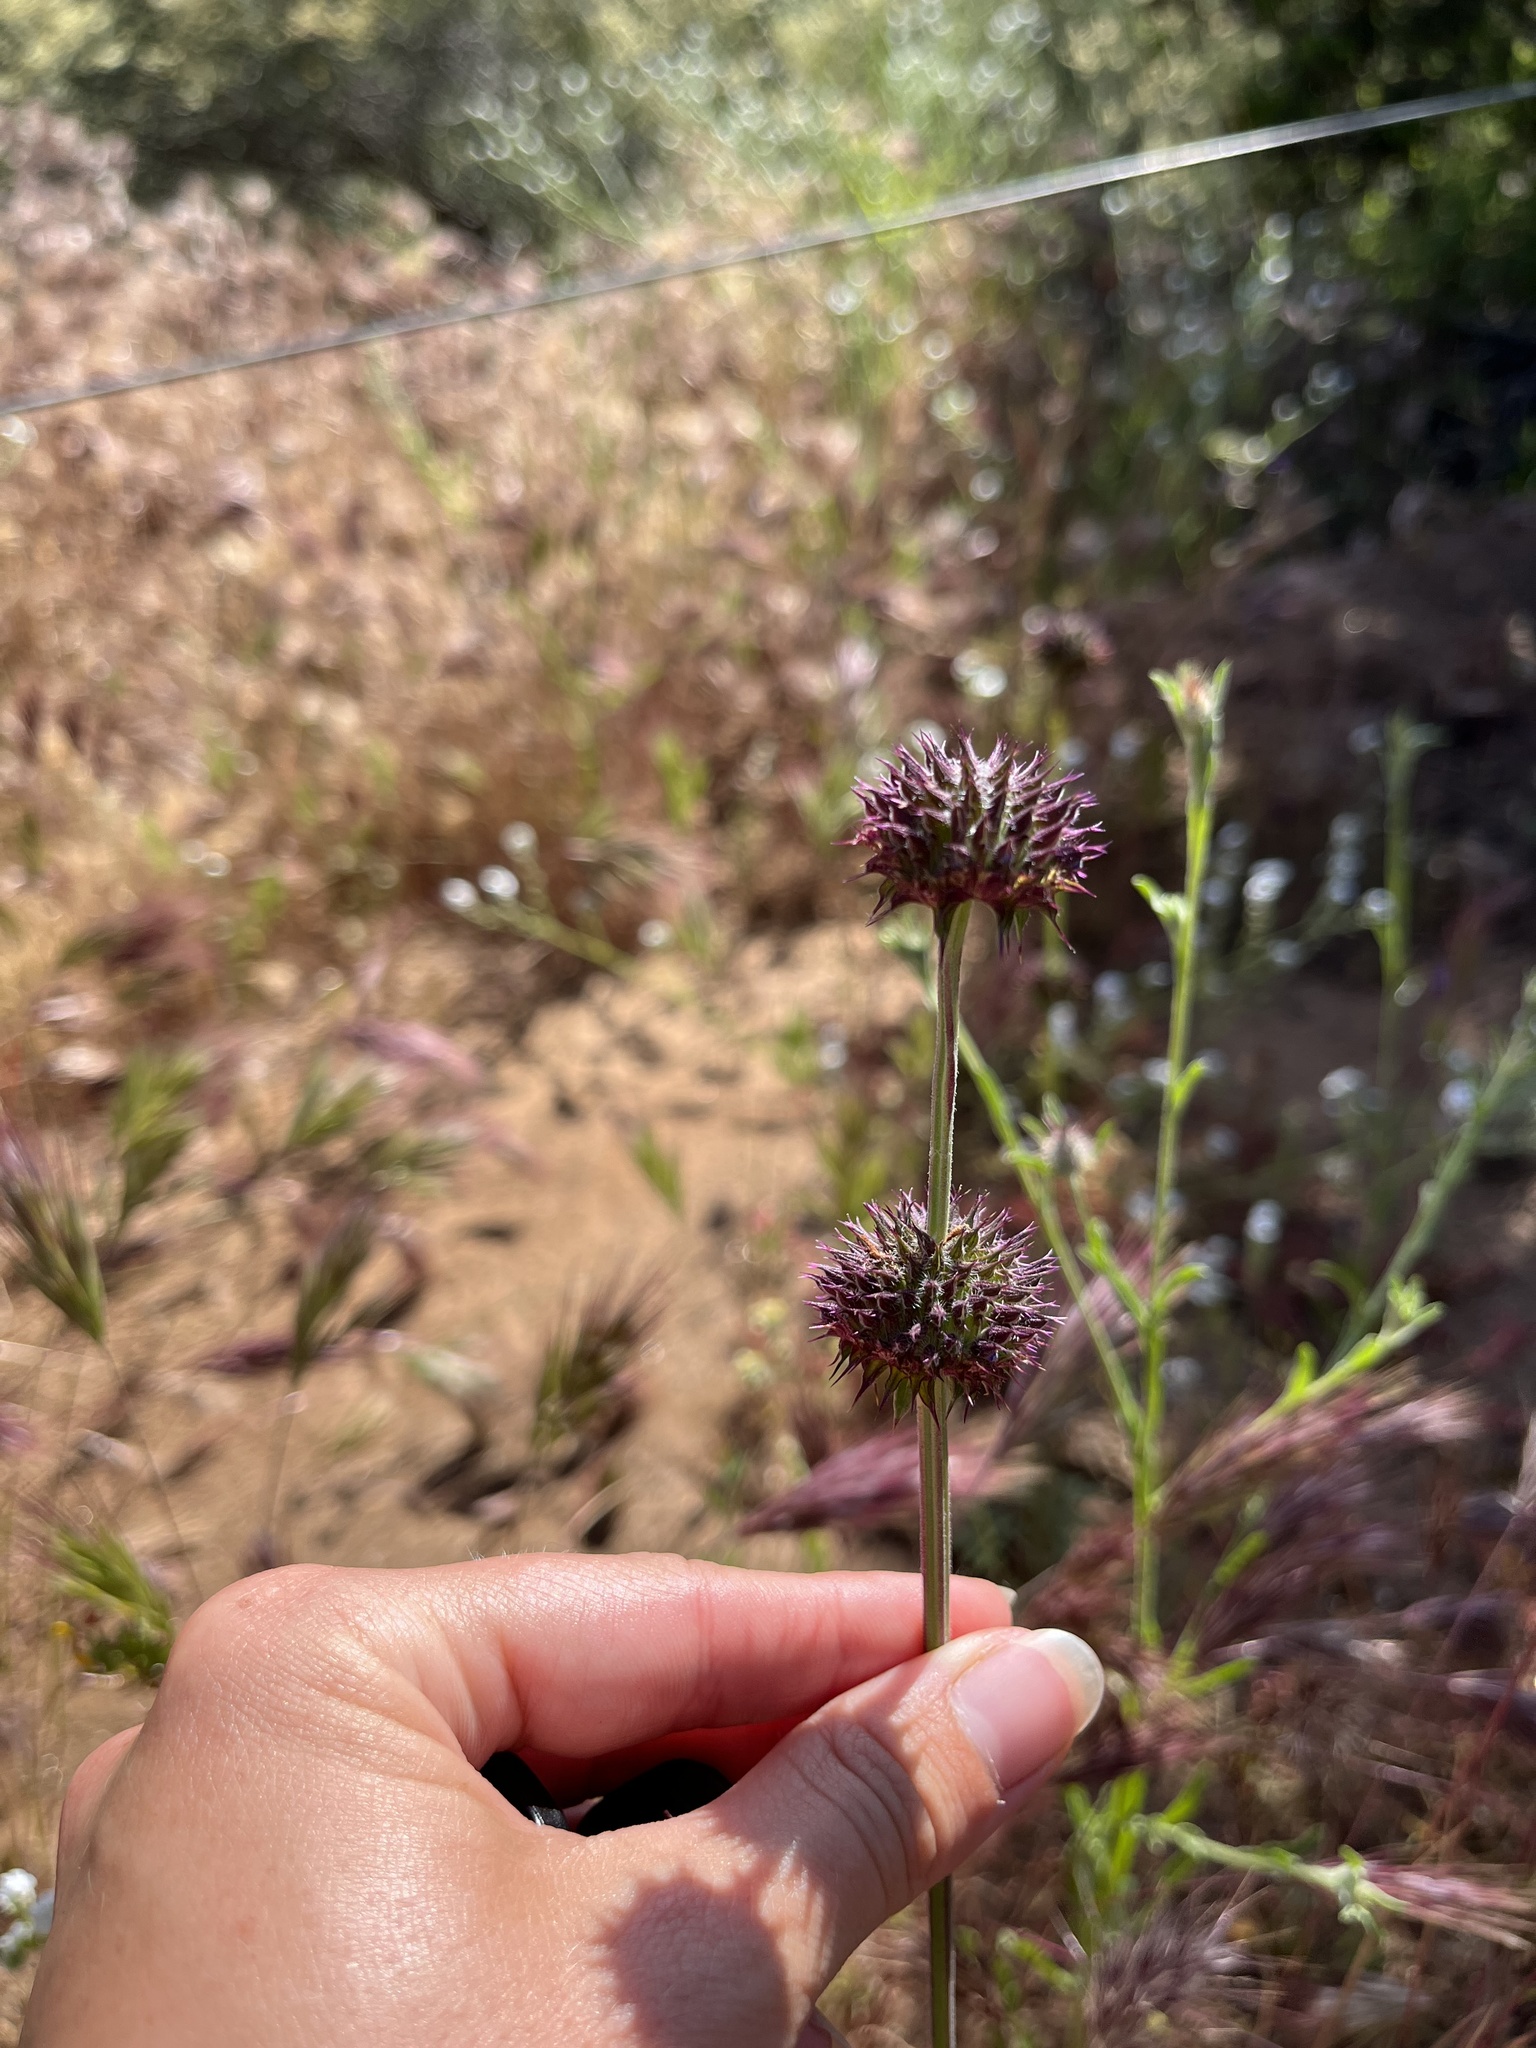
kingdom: Plantae
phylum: Tracheophyta
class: Magnoliopsida
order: Lamiales
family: Lamiaceae
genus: Salvia
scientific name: Salvia columbariae
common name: Chia
